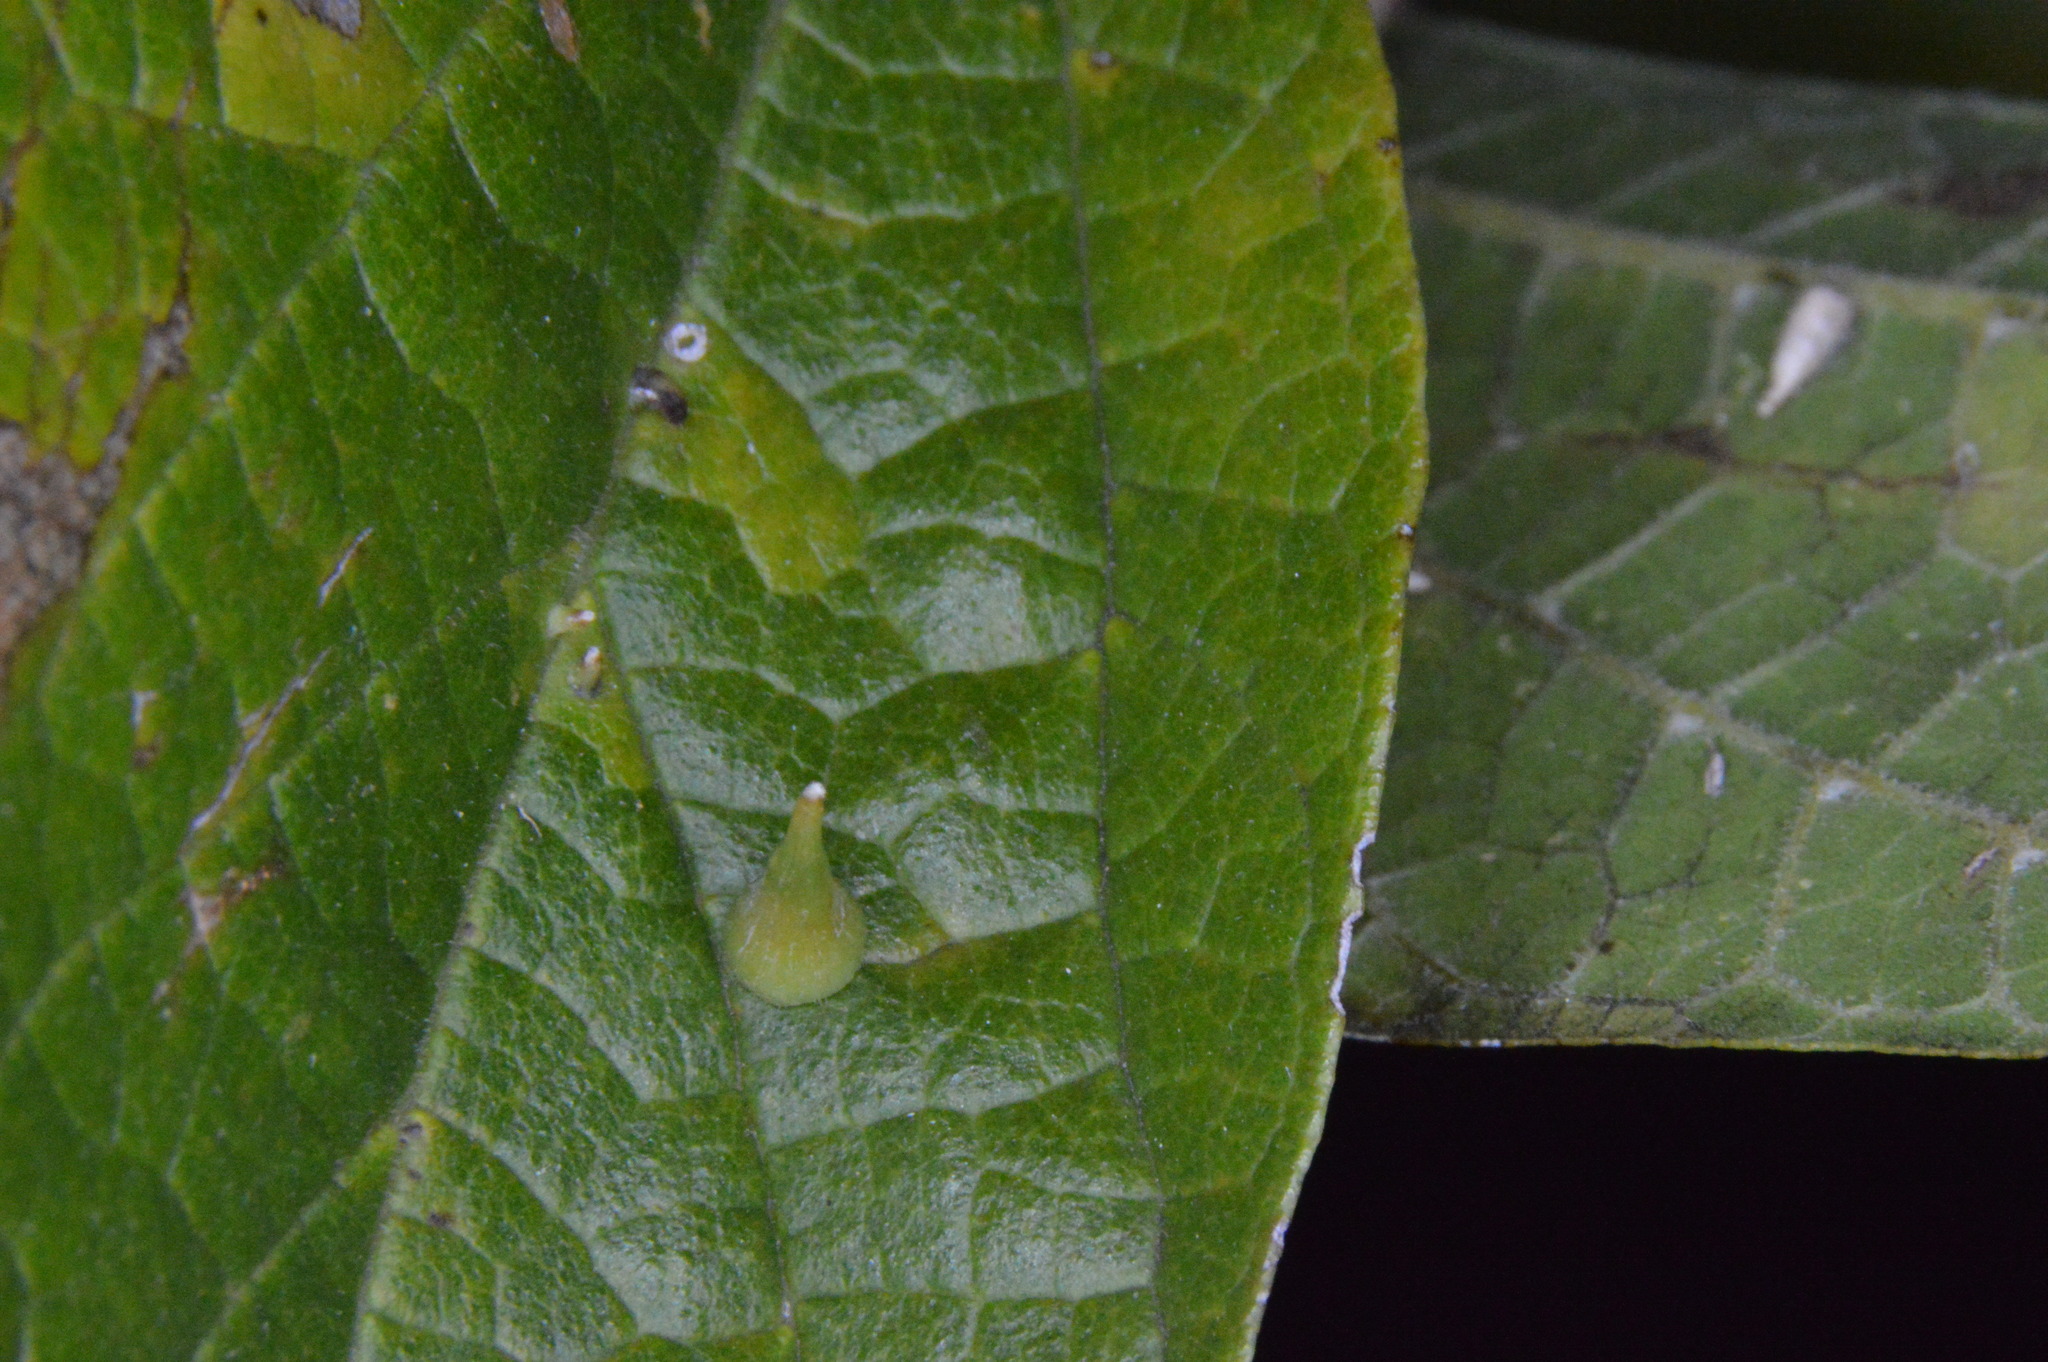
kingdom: Animalia
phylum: Arthropoda
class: Insecta
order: Diptera
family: Cecidomyiidae
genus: Celticecis
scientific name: Celticecis subulata
